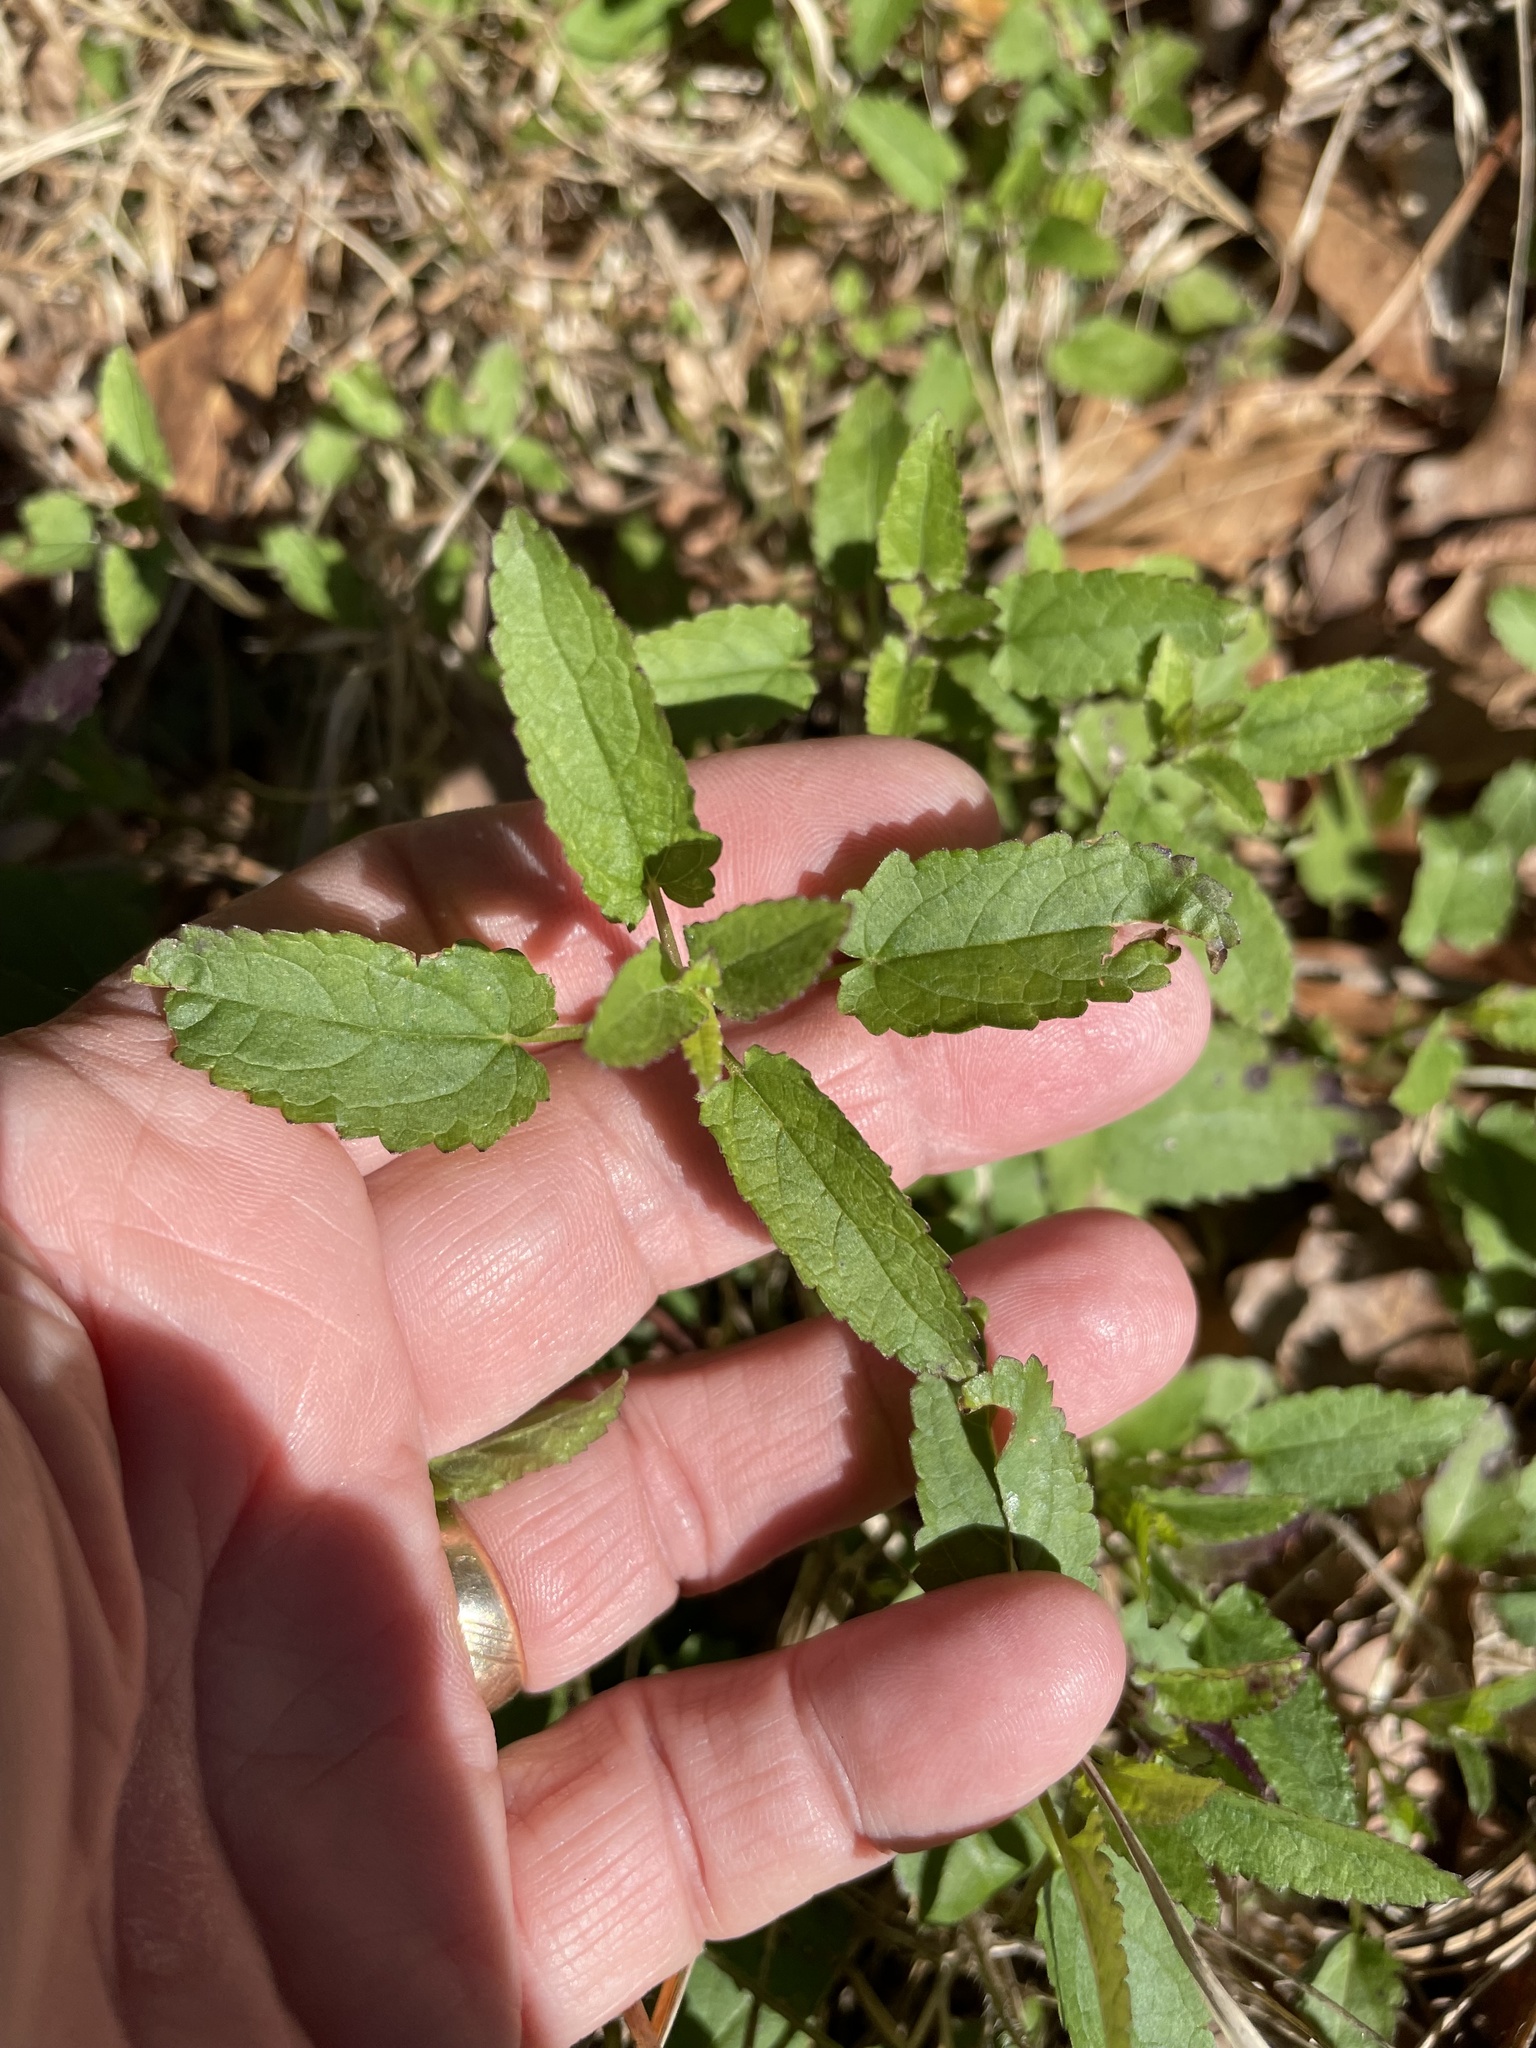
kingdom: Plantae
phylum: Tracheophyta
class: Magnoliopsida
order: Lamiales
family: Lamiaceae
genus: Stachys
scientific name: Stachys floridana
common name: Florida betony
